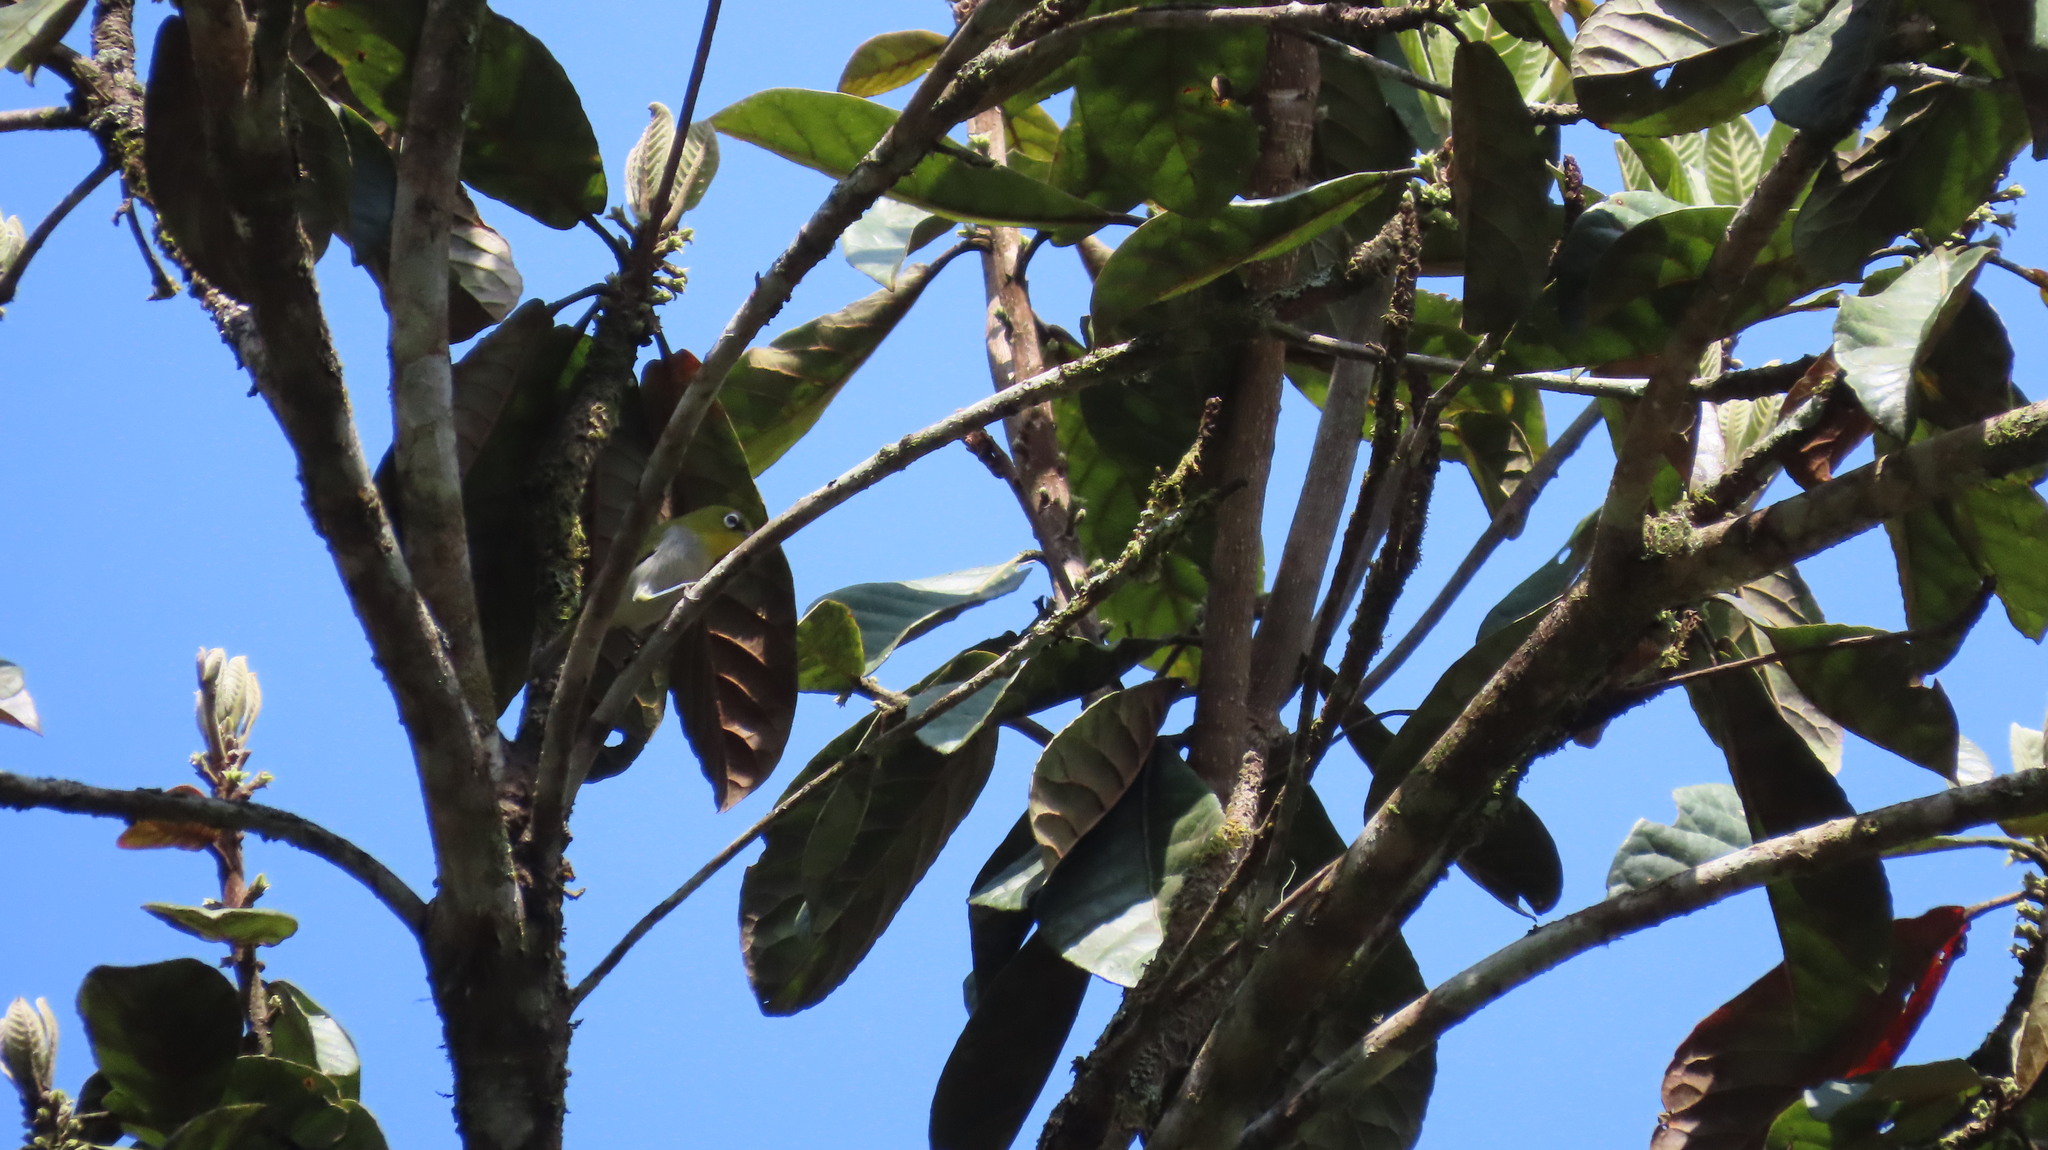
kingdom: Animalia
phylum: Chordata
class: Aves
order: Passeriformes
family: Zosteropidae
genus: Zosterops
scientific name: Zosterops palpebrosus
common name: Oriental white-eye
